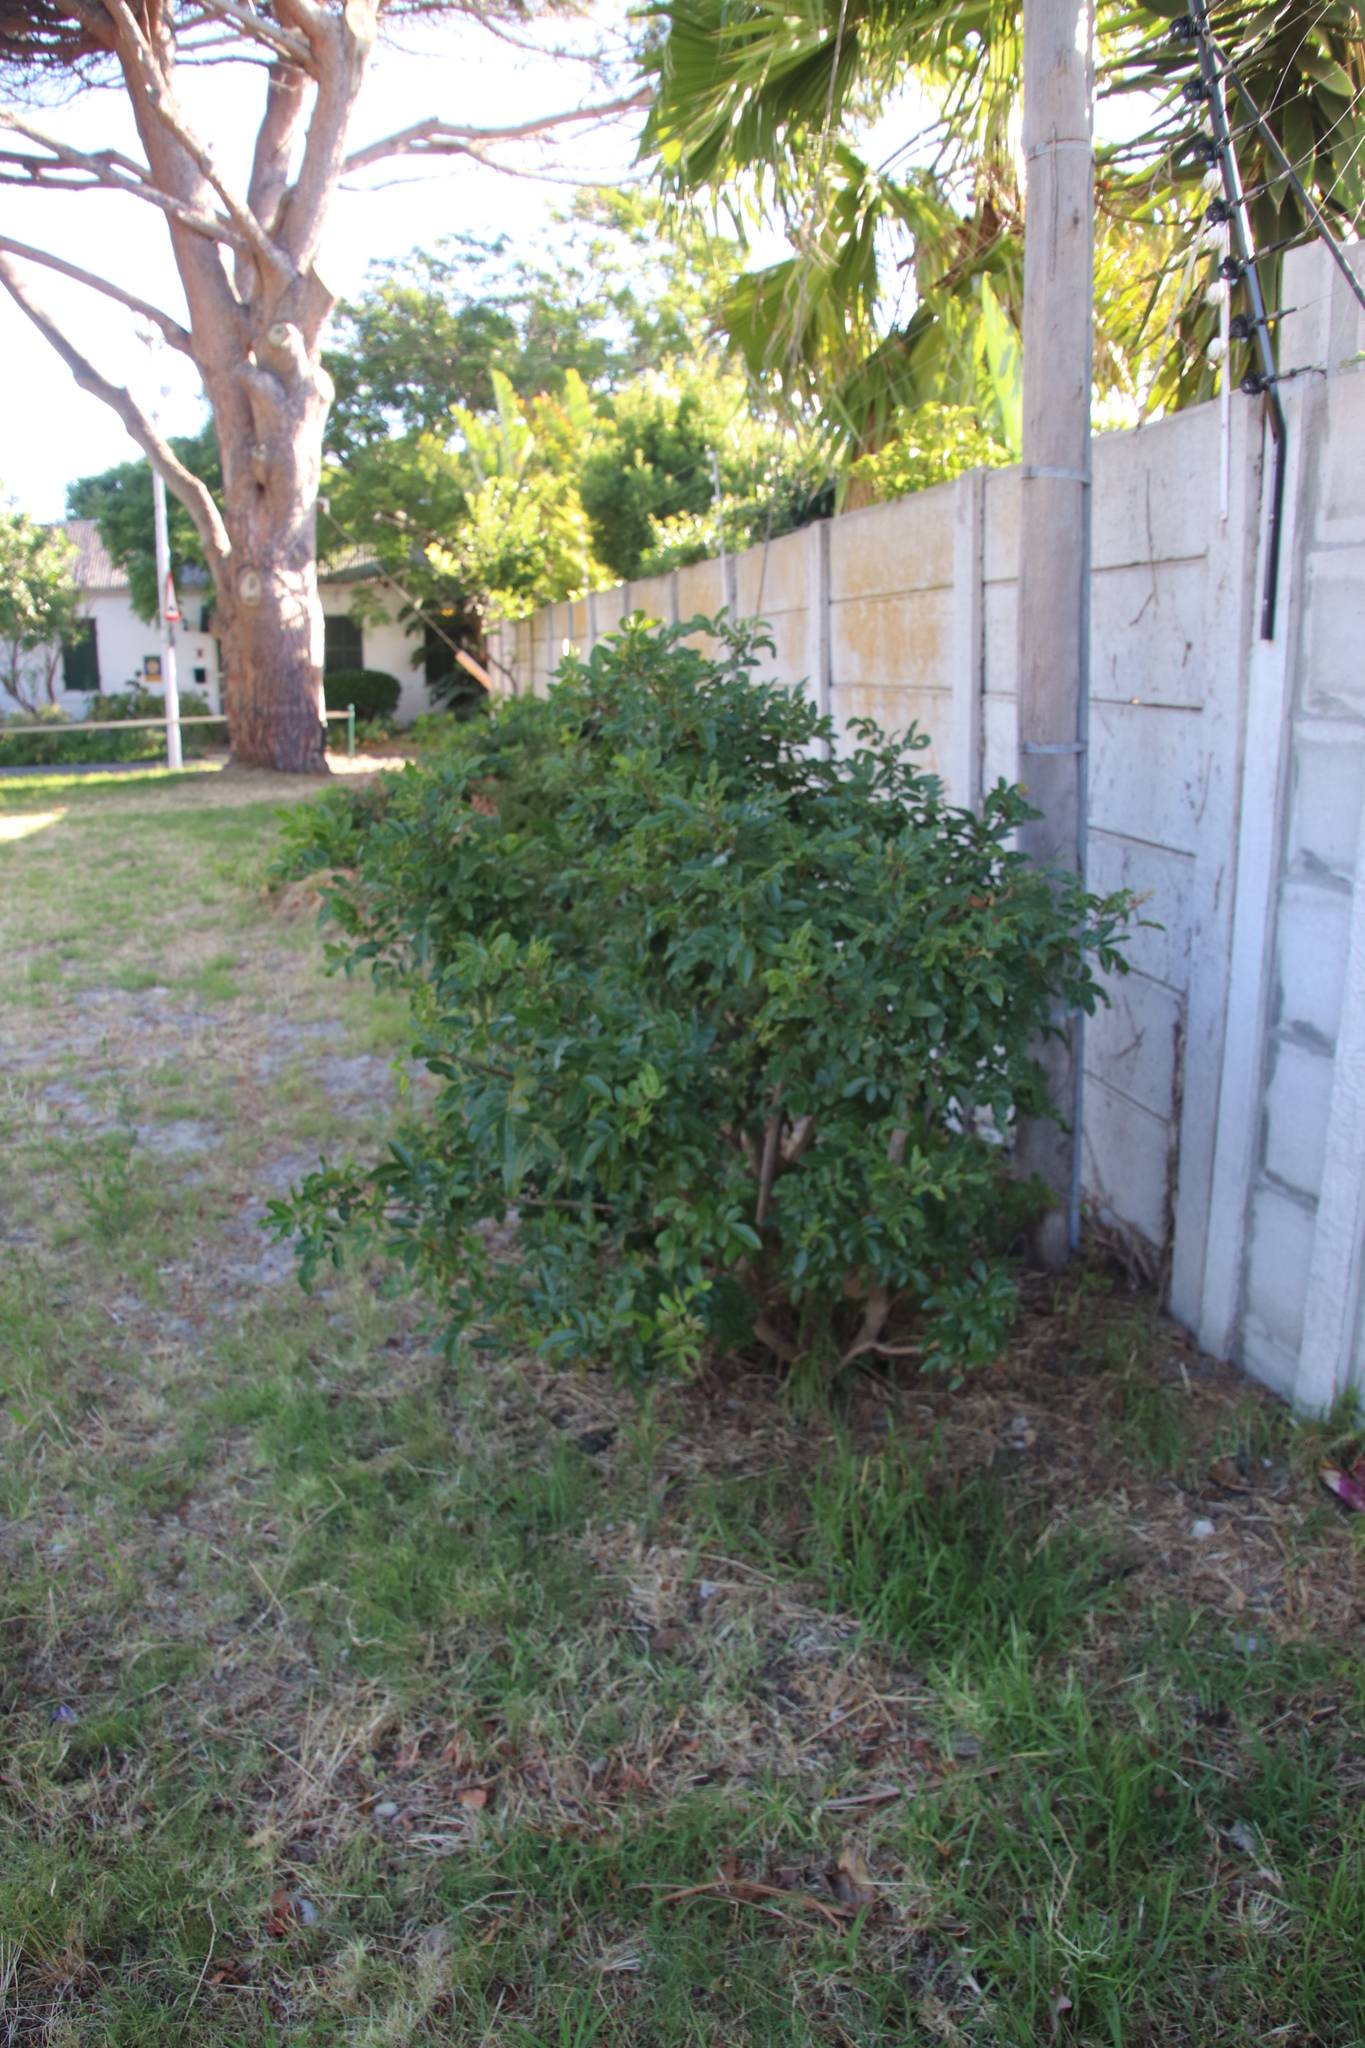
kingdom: Plantae
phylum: Tracheophyta
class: Magnoliopsida
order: Sapindales
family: Anacardiaceae
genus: Schinus
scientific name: Schinus terebinthifolia
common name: Brazilian peppertree
